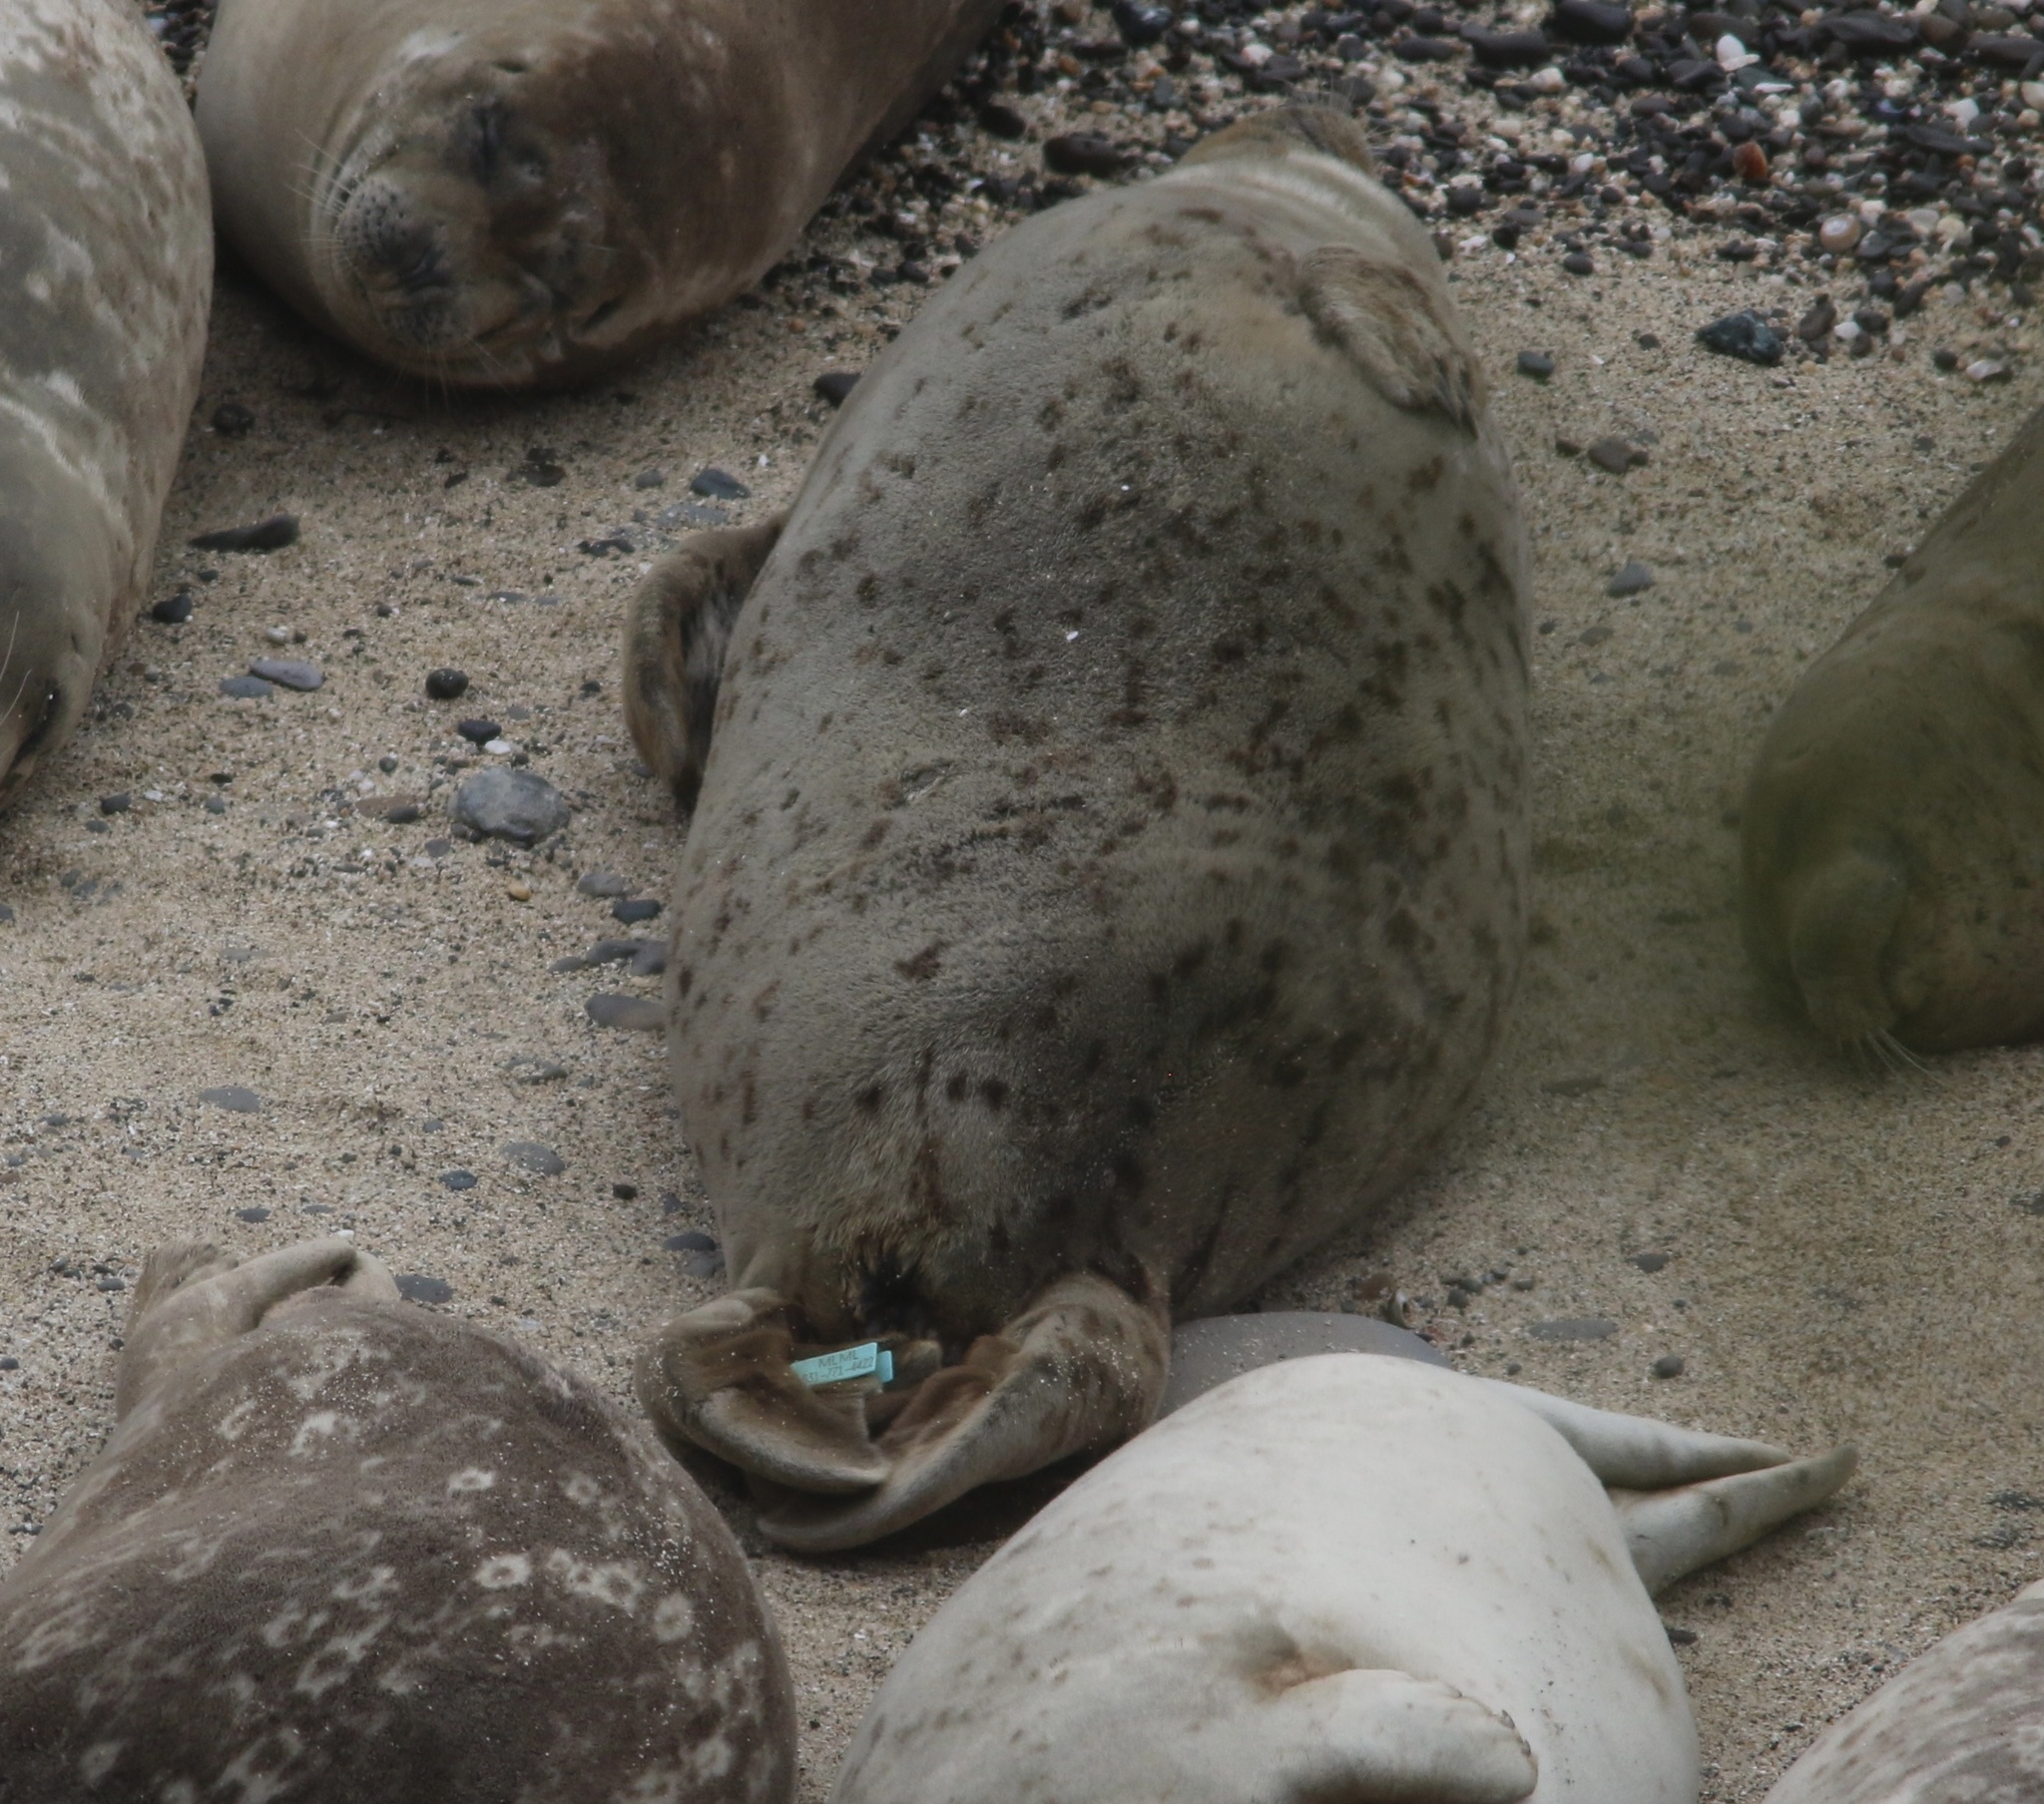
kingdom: Animalia
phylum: Chordata
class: Mammalia
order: Carnivora
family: Phocidae
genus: Phoca
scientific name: Phoca vitulina
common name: Harbor seal
